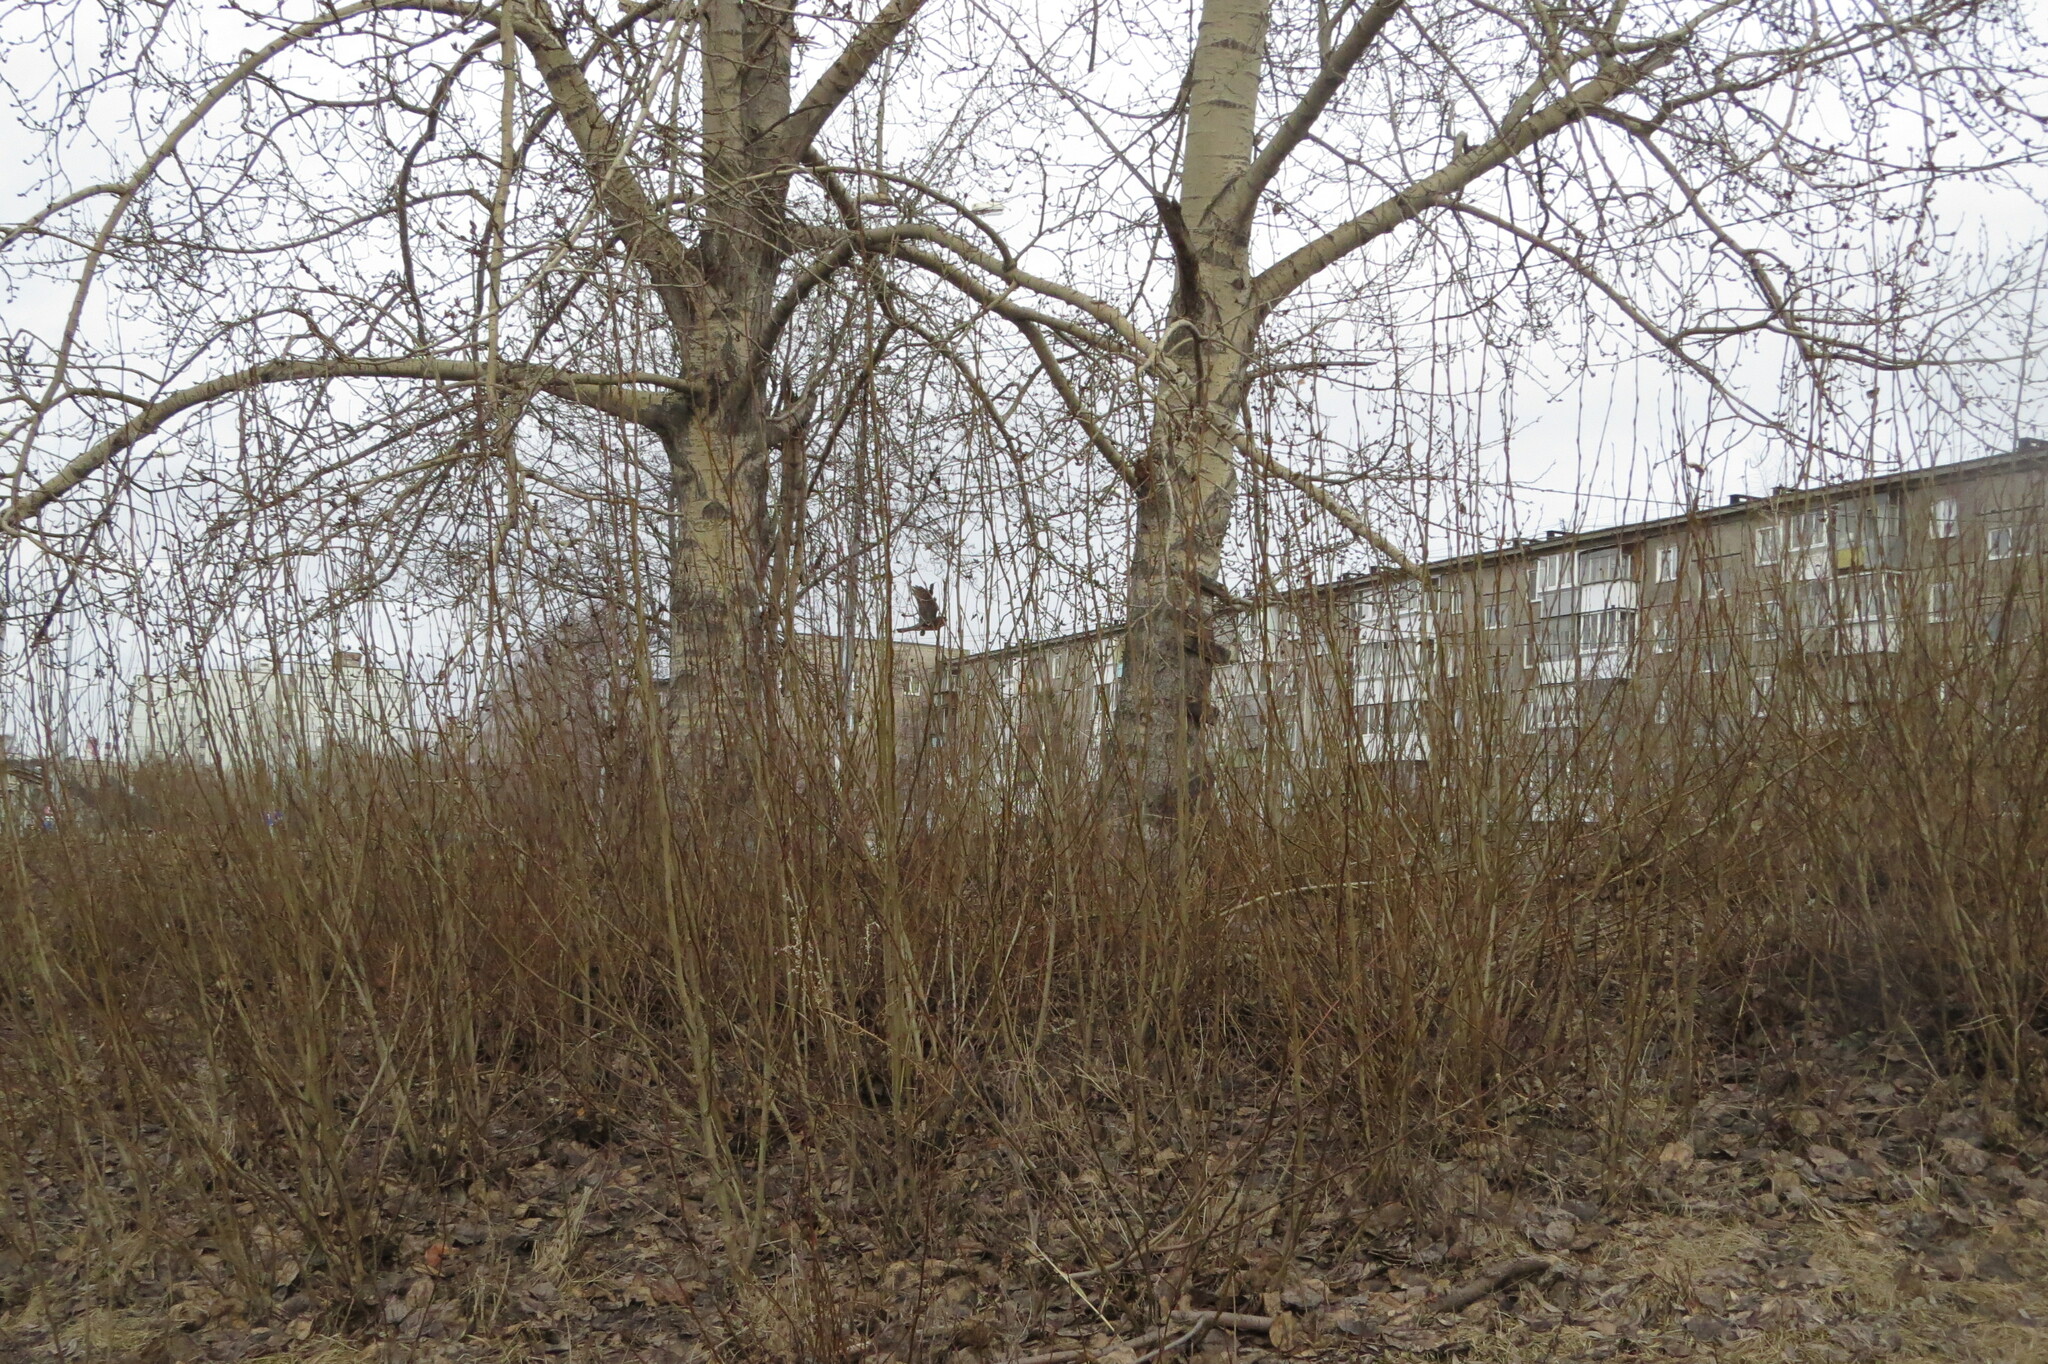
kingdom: Animalia
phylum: Chordata
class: Aves
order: Accipitriformes
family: Accipitridae
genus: Accipiter
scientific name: Accipiter nisus
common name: Eurasian sparrowhawk
